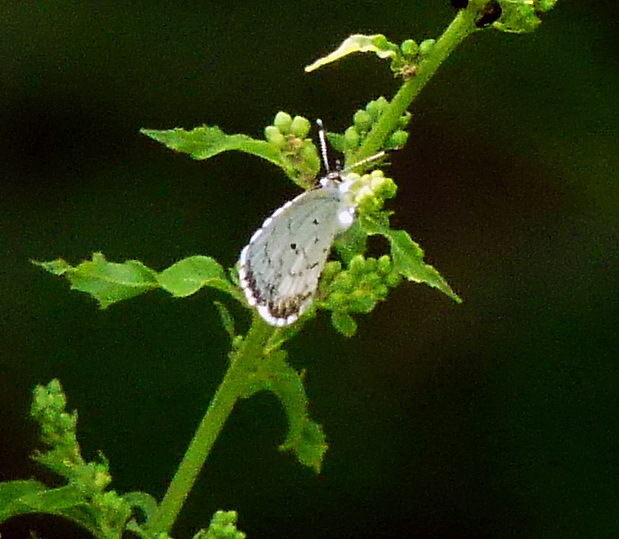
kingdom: Animalia
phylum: Arthropoda
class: Insecta
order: Lepidoptera
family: Lycaenidae
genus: Celastrina
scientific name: Celastrina lucia
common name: Lucia azure
